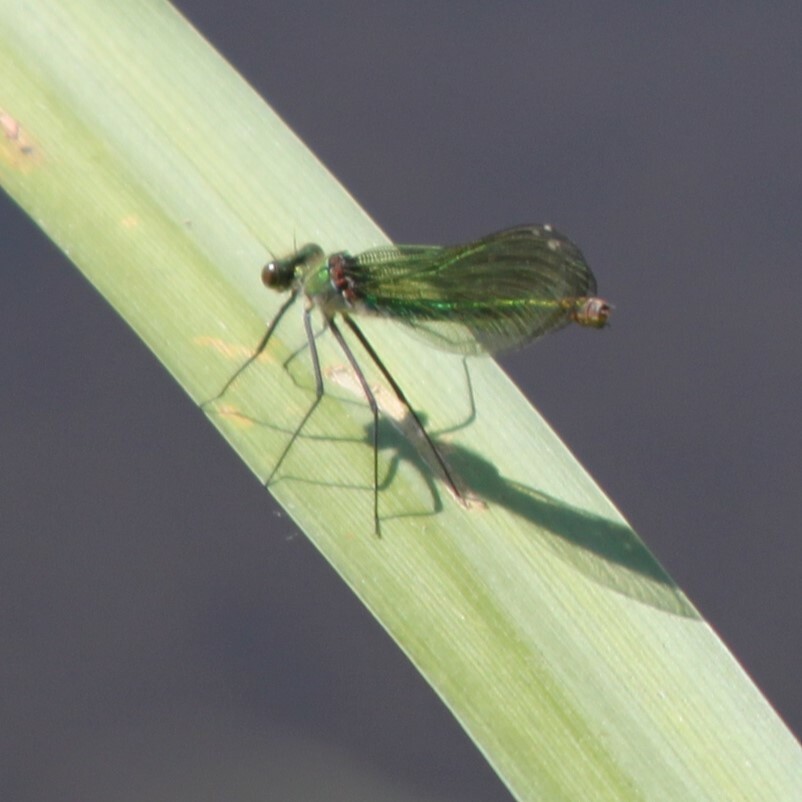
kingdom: Animalia
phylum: Arthropoda
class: Insecta
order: Odonata
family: Calopterygidae
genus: Calopteryx
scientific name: Calopteryx splendens
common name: Banded demoiselle
